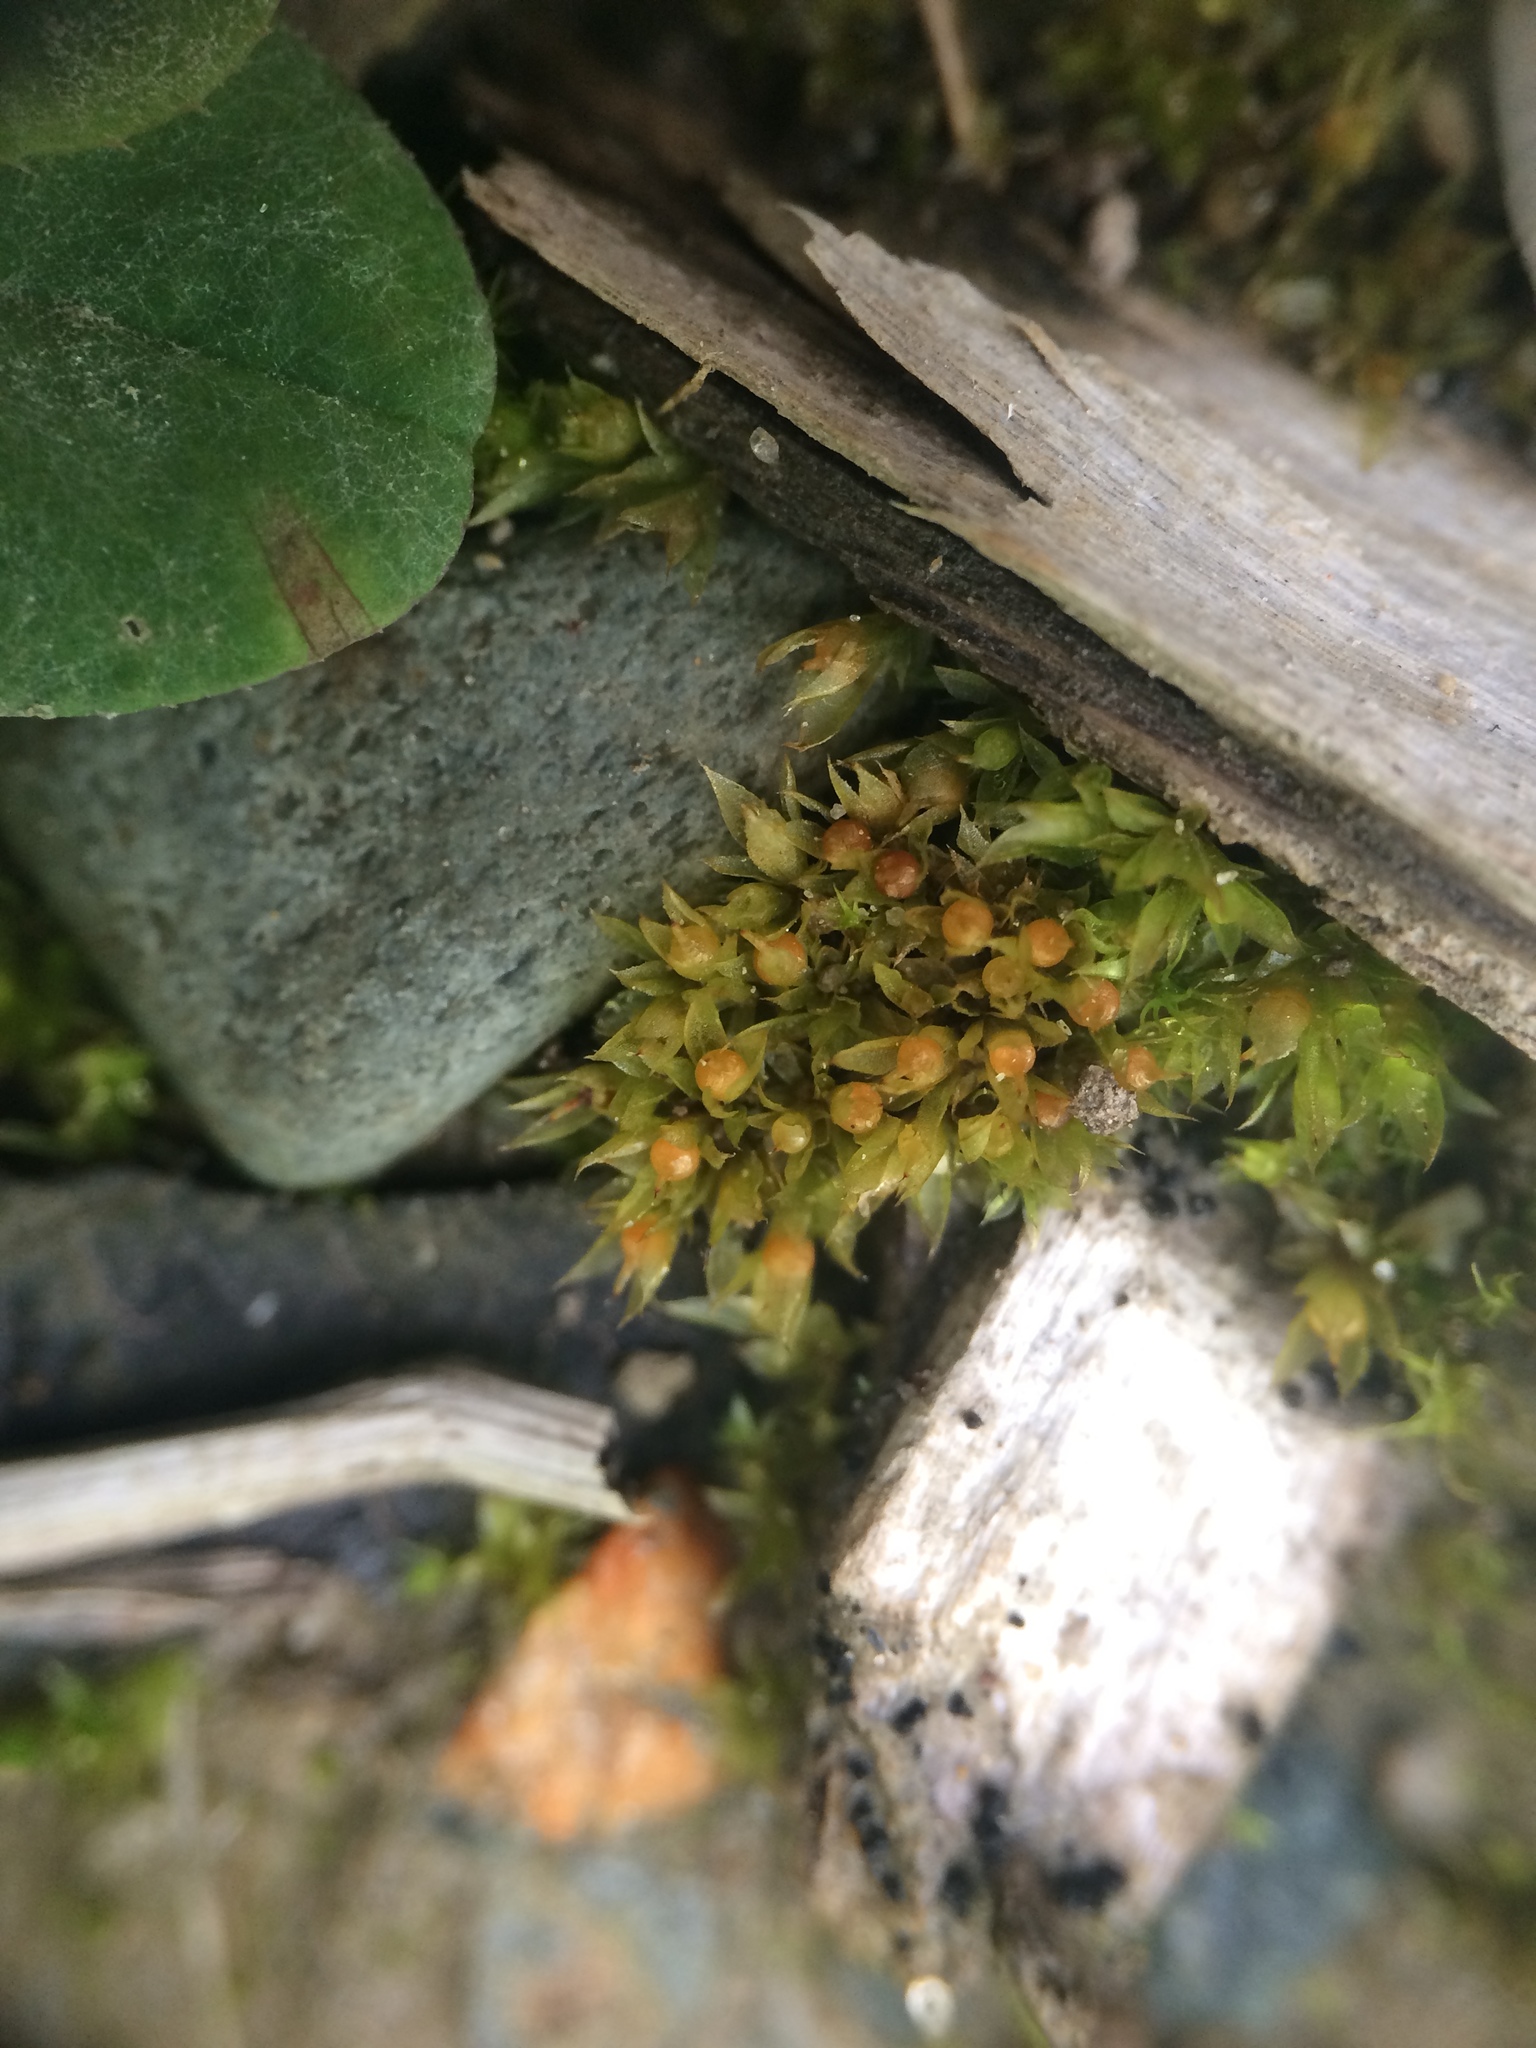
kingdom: Plantae
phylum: Bryophyta
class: Bryopsida
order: Funariales
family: Funariaceae
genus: Physcomitrium
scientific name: Physcomitrium immersum
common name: Hidden urn moss
